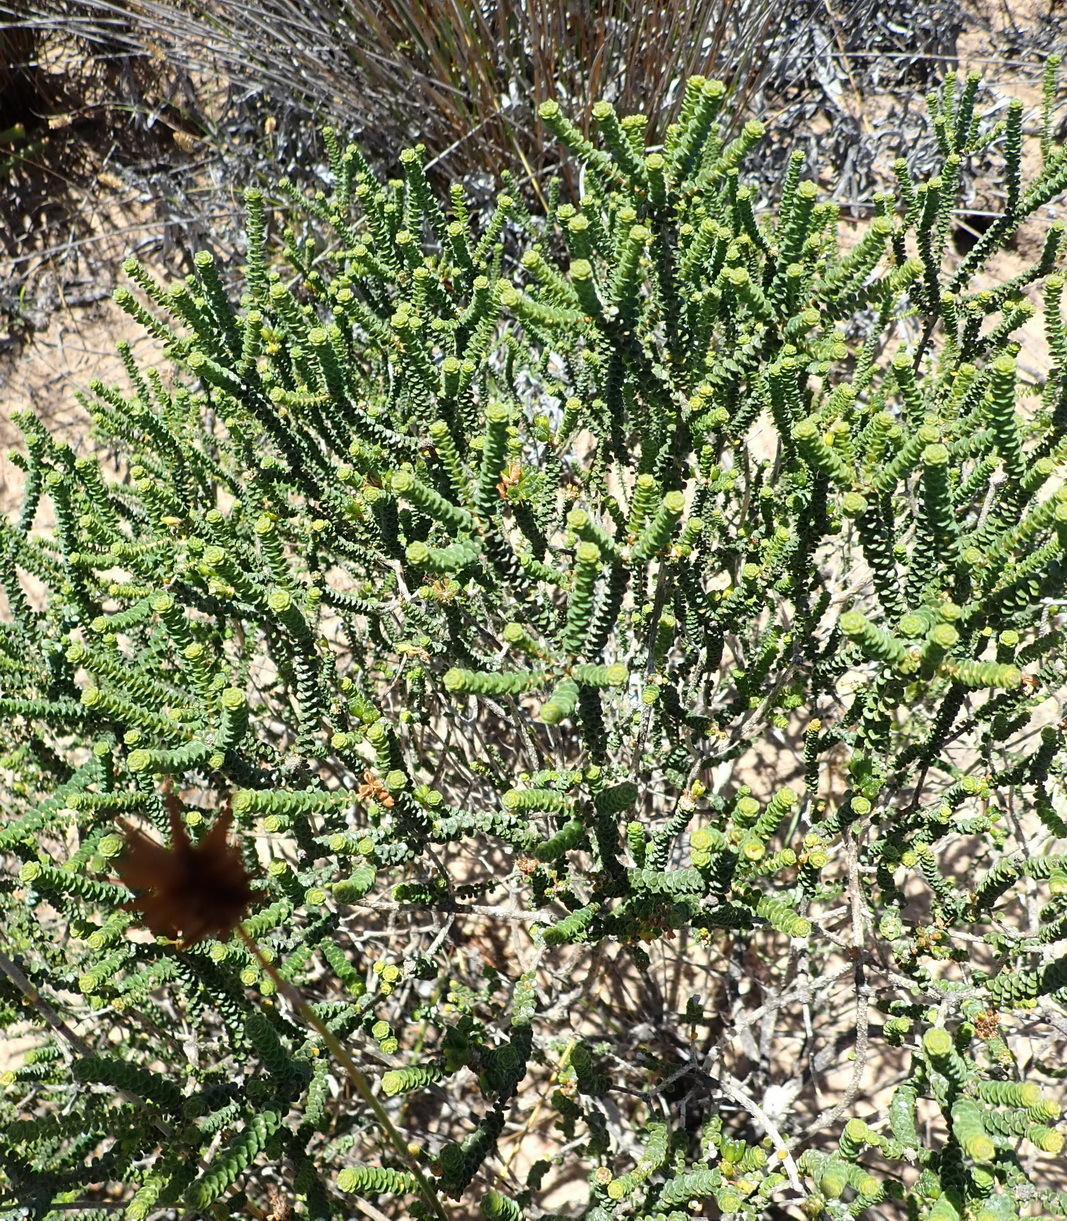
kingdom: Plantae
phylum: Tracheophyta
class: Magnoliopsida
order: Sapindales
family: Rutaceae
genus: Agathosma
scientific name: Agathosma muirii
